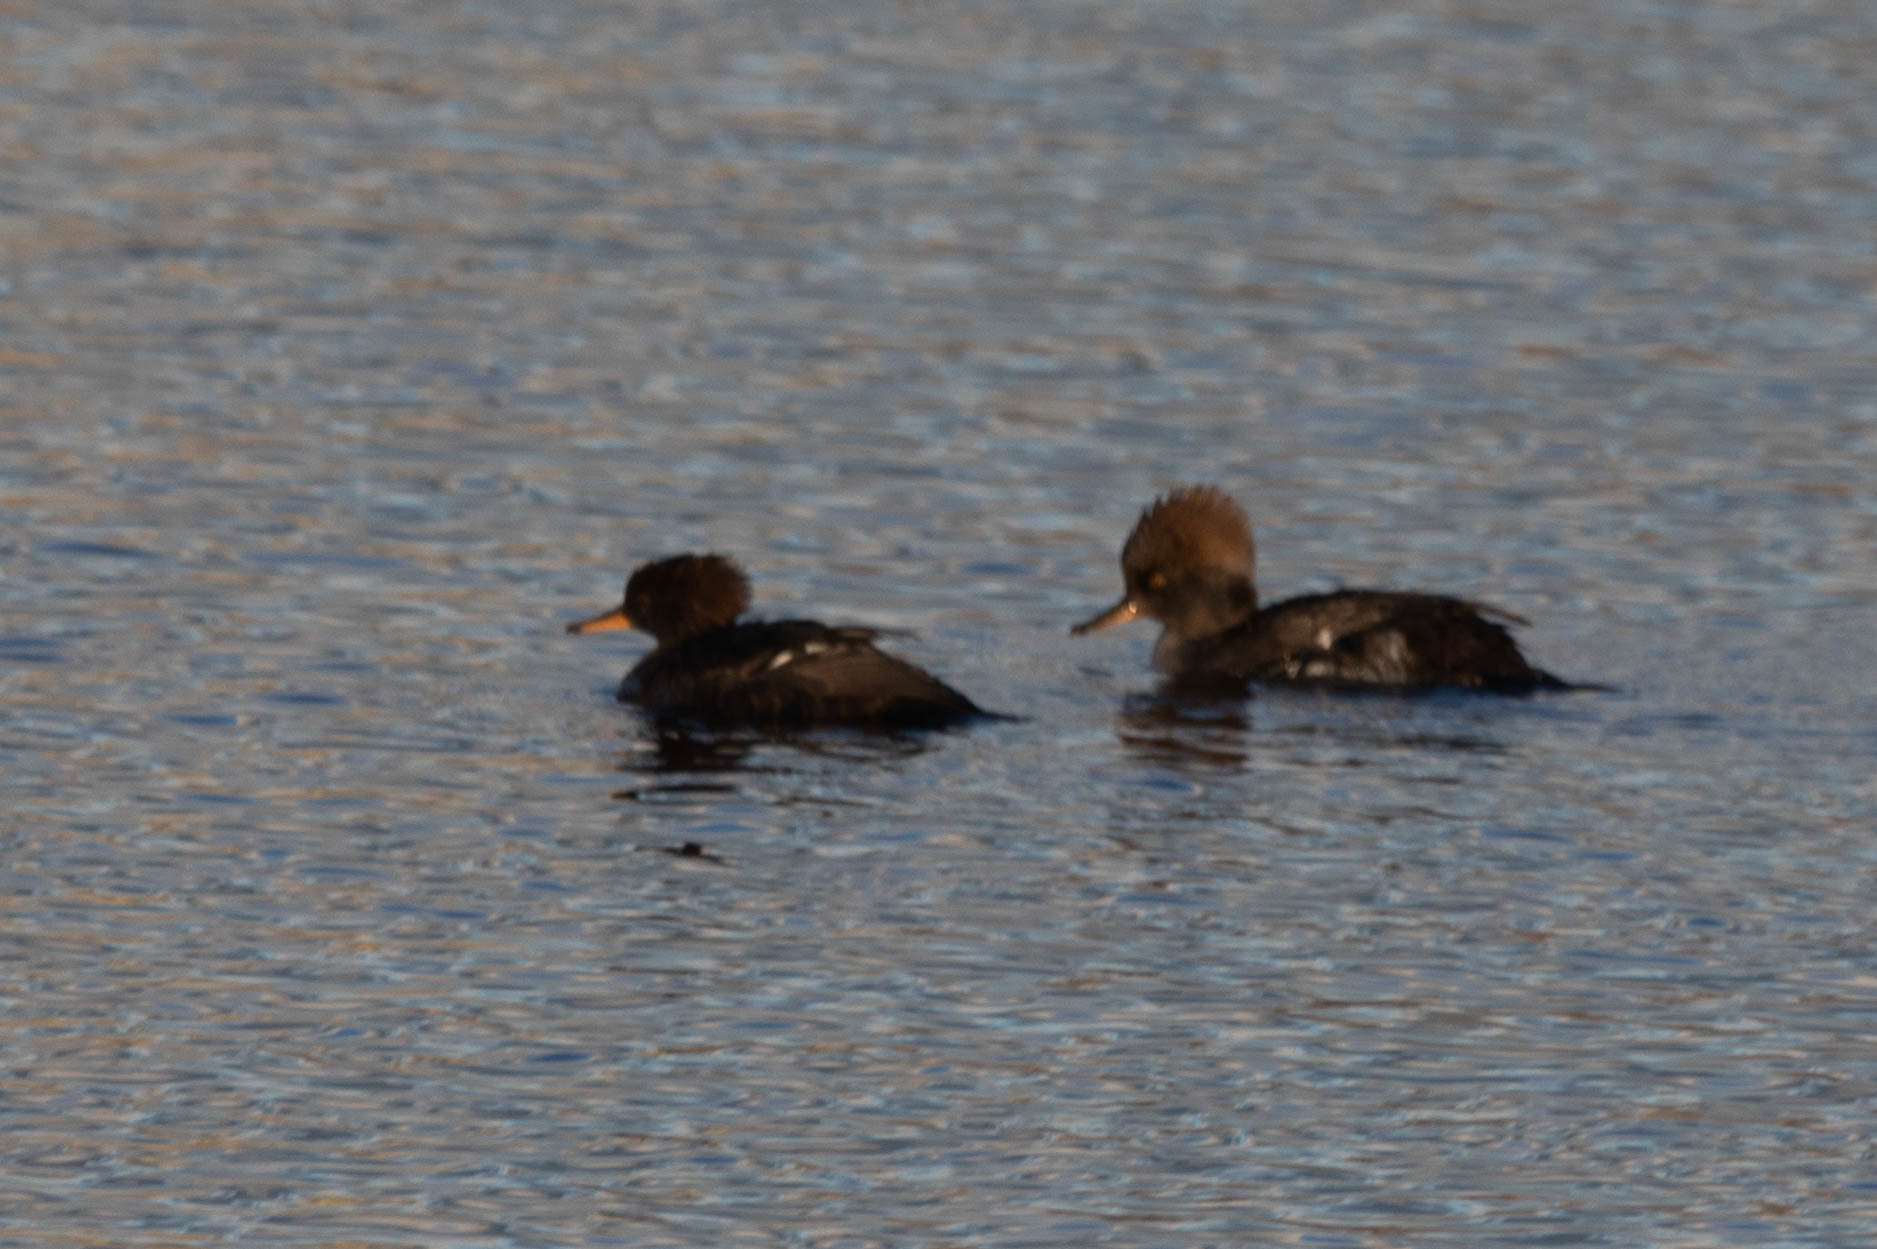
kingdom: Animalia
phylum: Chordata
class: Aves
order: Anseriformes
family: Anatidae
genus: Lophodytes
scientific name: Lophodytes cucullatus
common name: Hooded merganser
